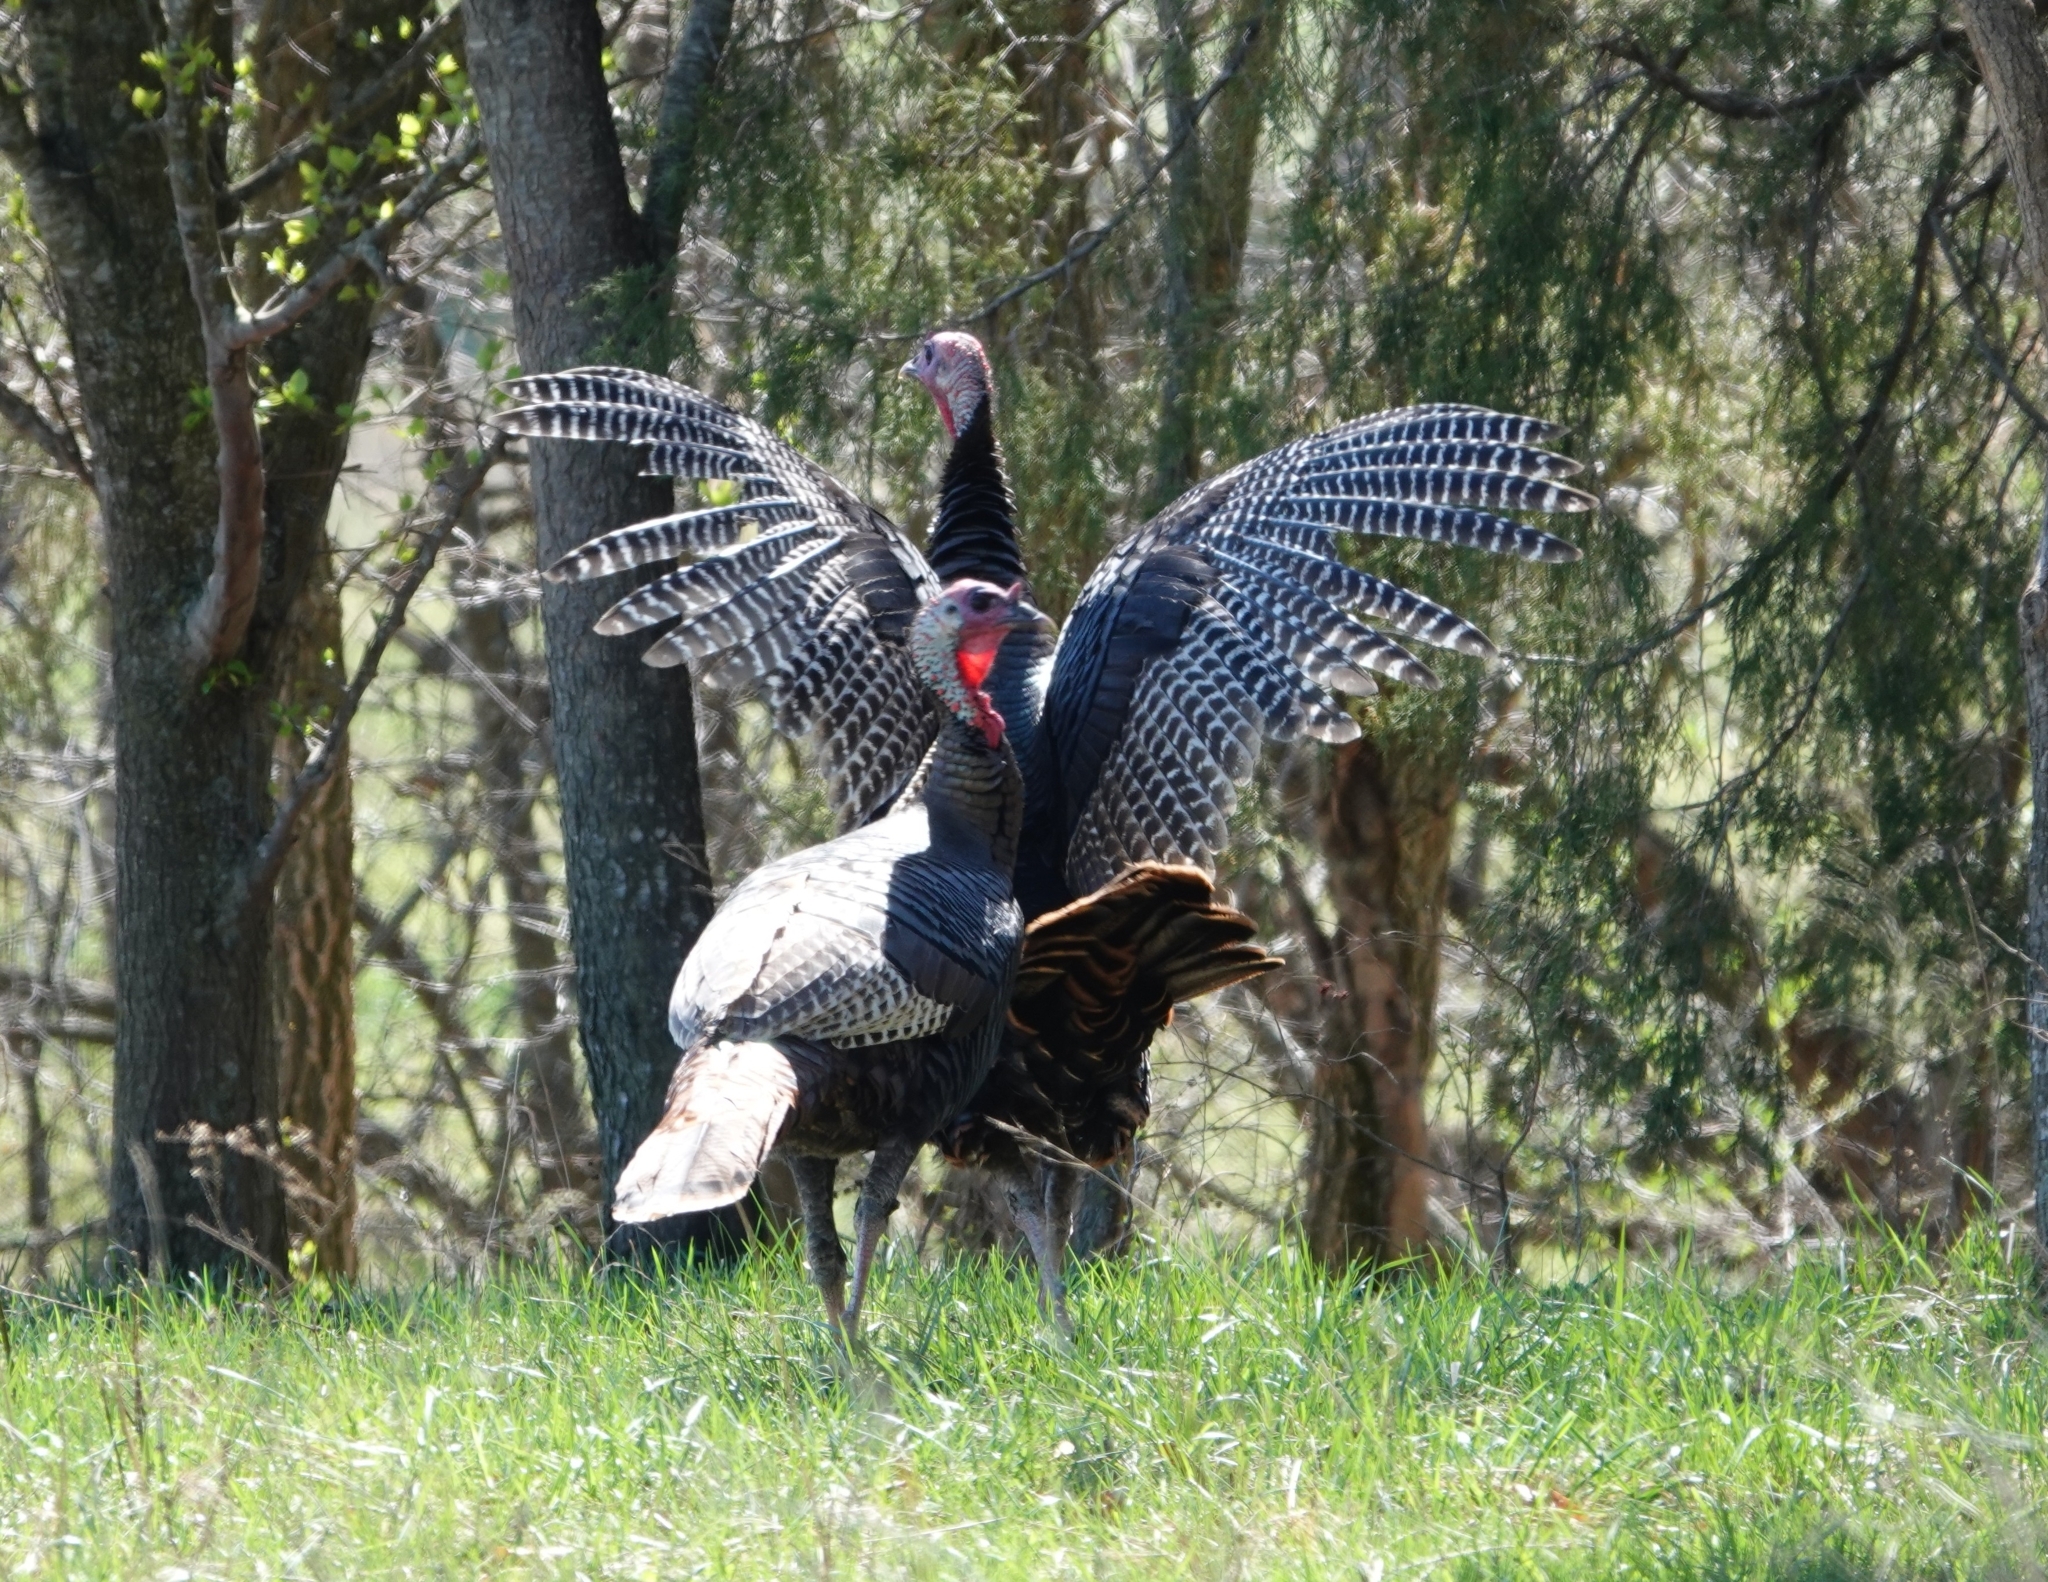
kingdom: Animalia
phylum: Chordata
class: Aves
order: Galliformes
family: Phasianidae
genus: Meleagris
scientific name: Meleagris gallopavo
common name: Wild turkey
